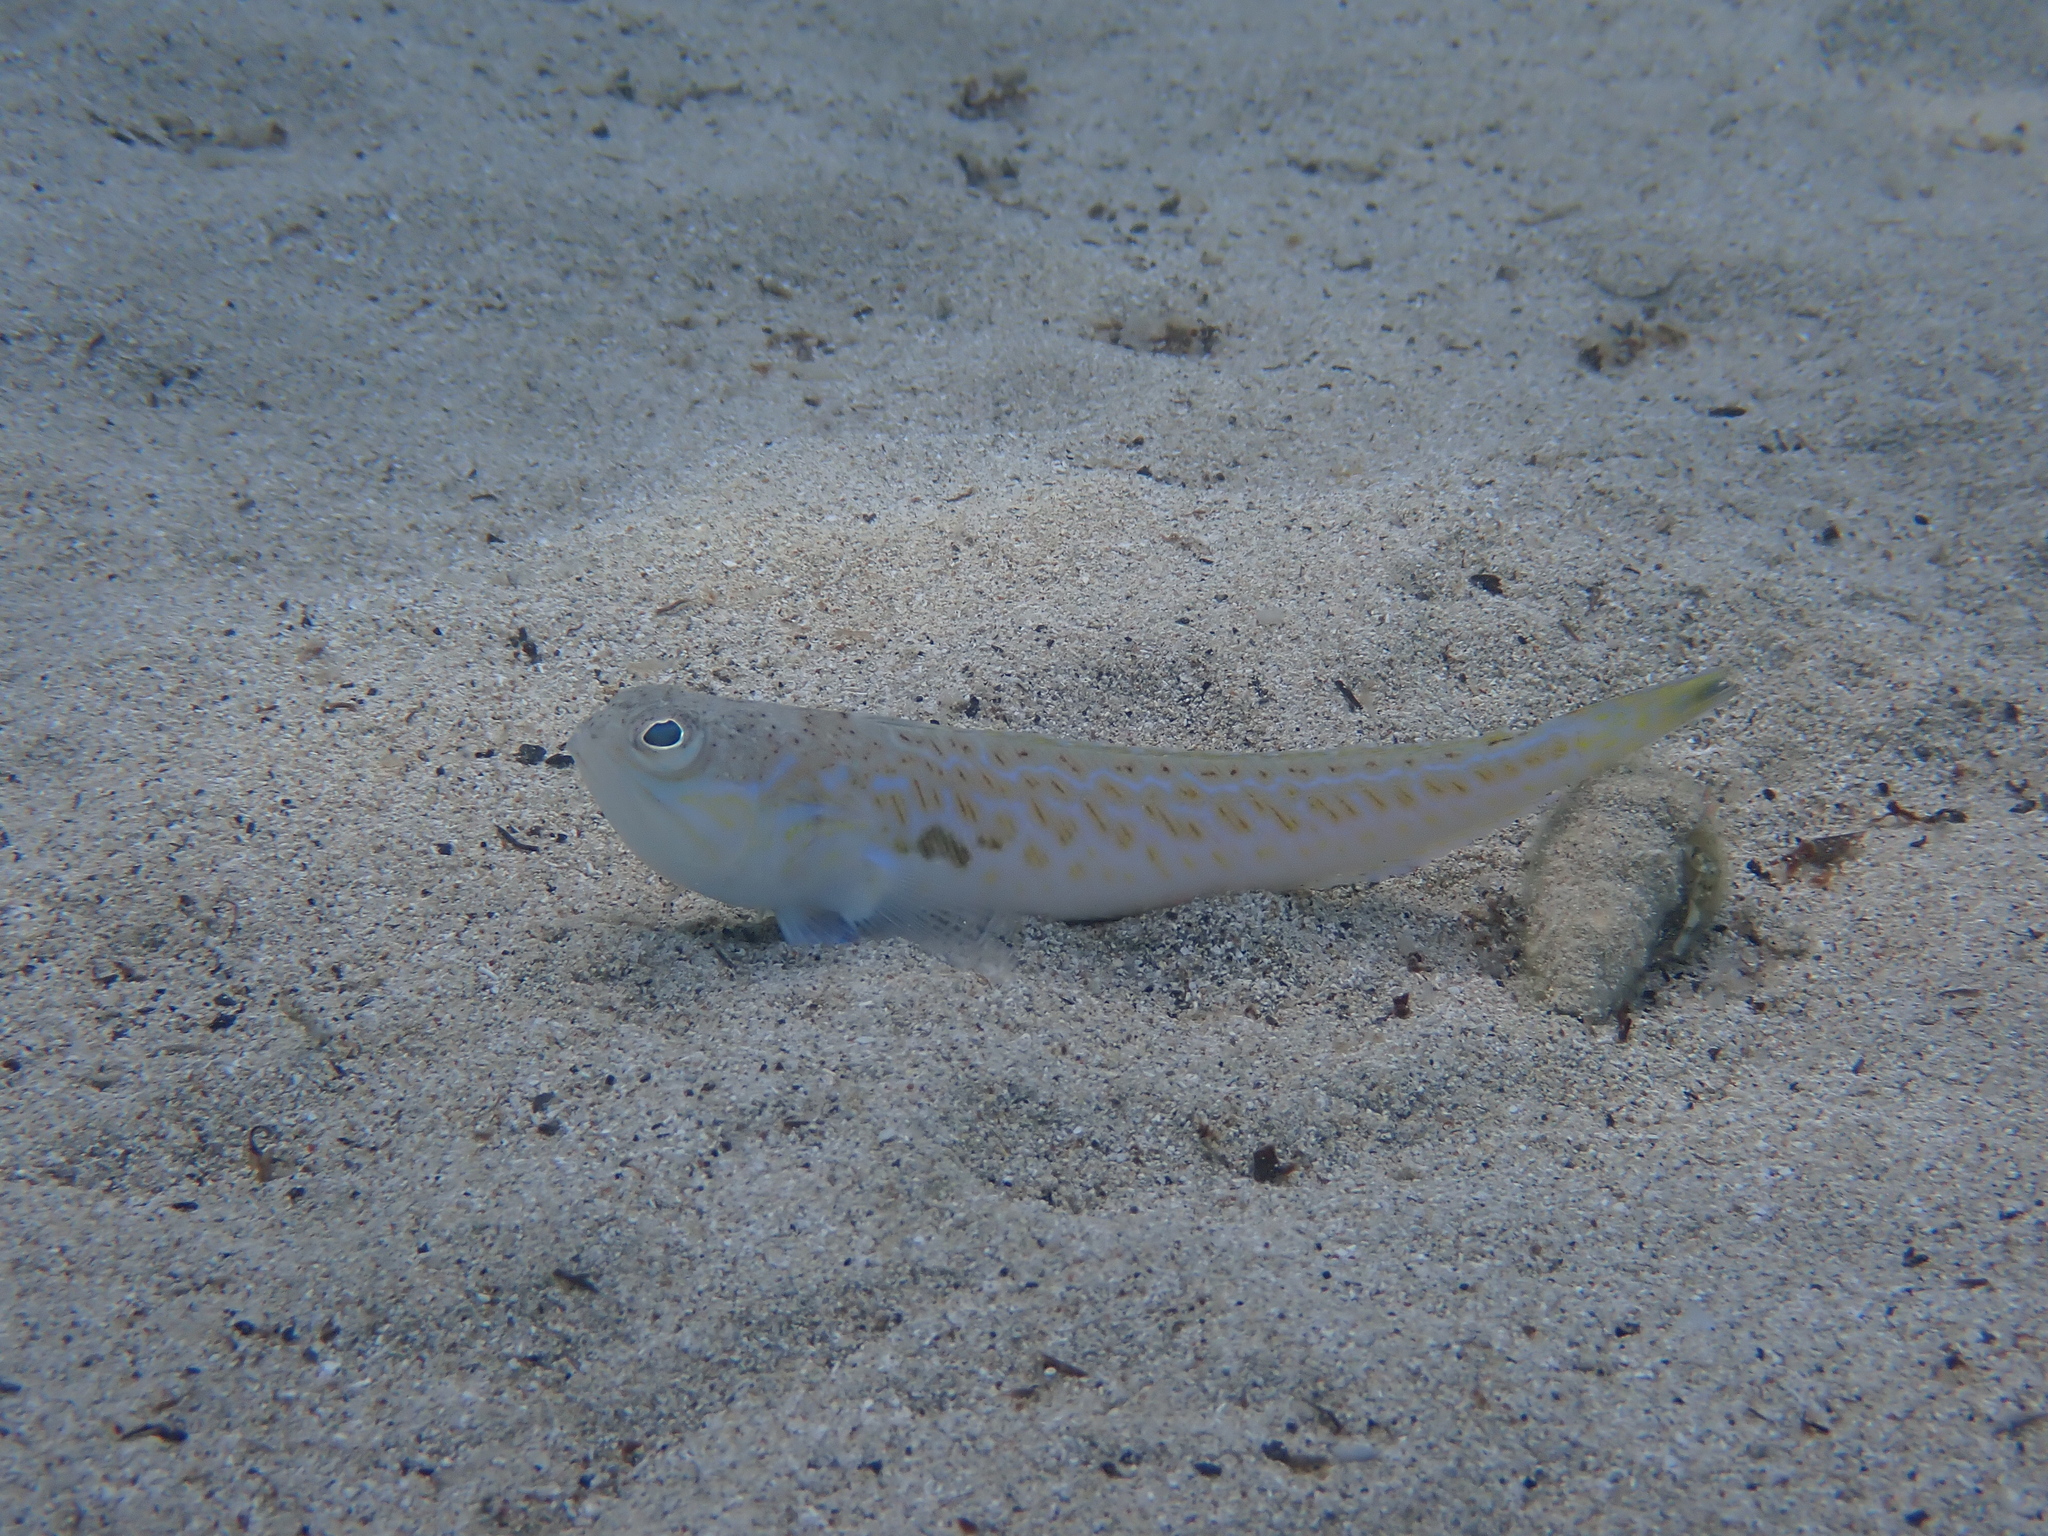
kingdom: Animalia
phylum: Chordata
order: Perciformes
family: Trachinidae
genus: Trachinus
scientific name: Trachinus draco
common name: Greater weever
